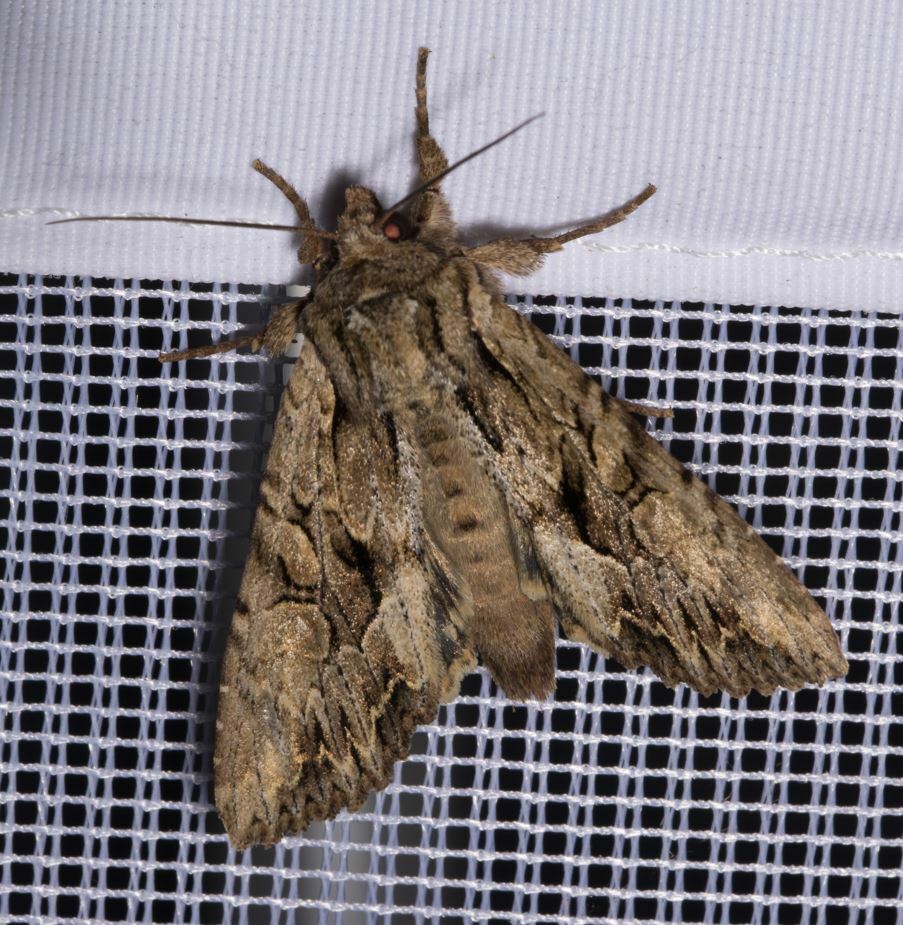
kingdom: Animalia
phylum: Arthropoda
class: Insecta
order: Lepidoptera
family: Noctuidae
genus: Apamea
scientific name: Apamea monoglypha
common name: Dark arches
